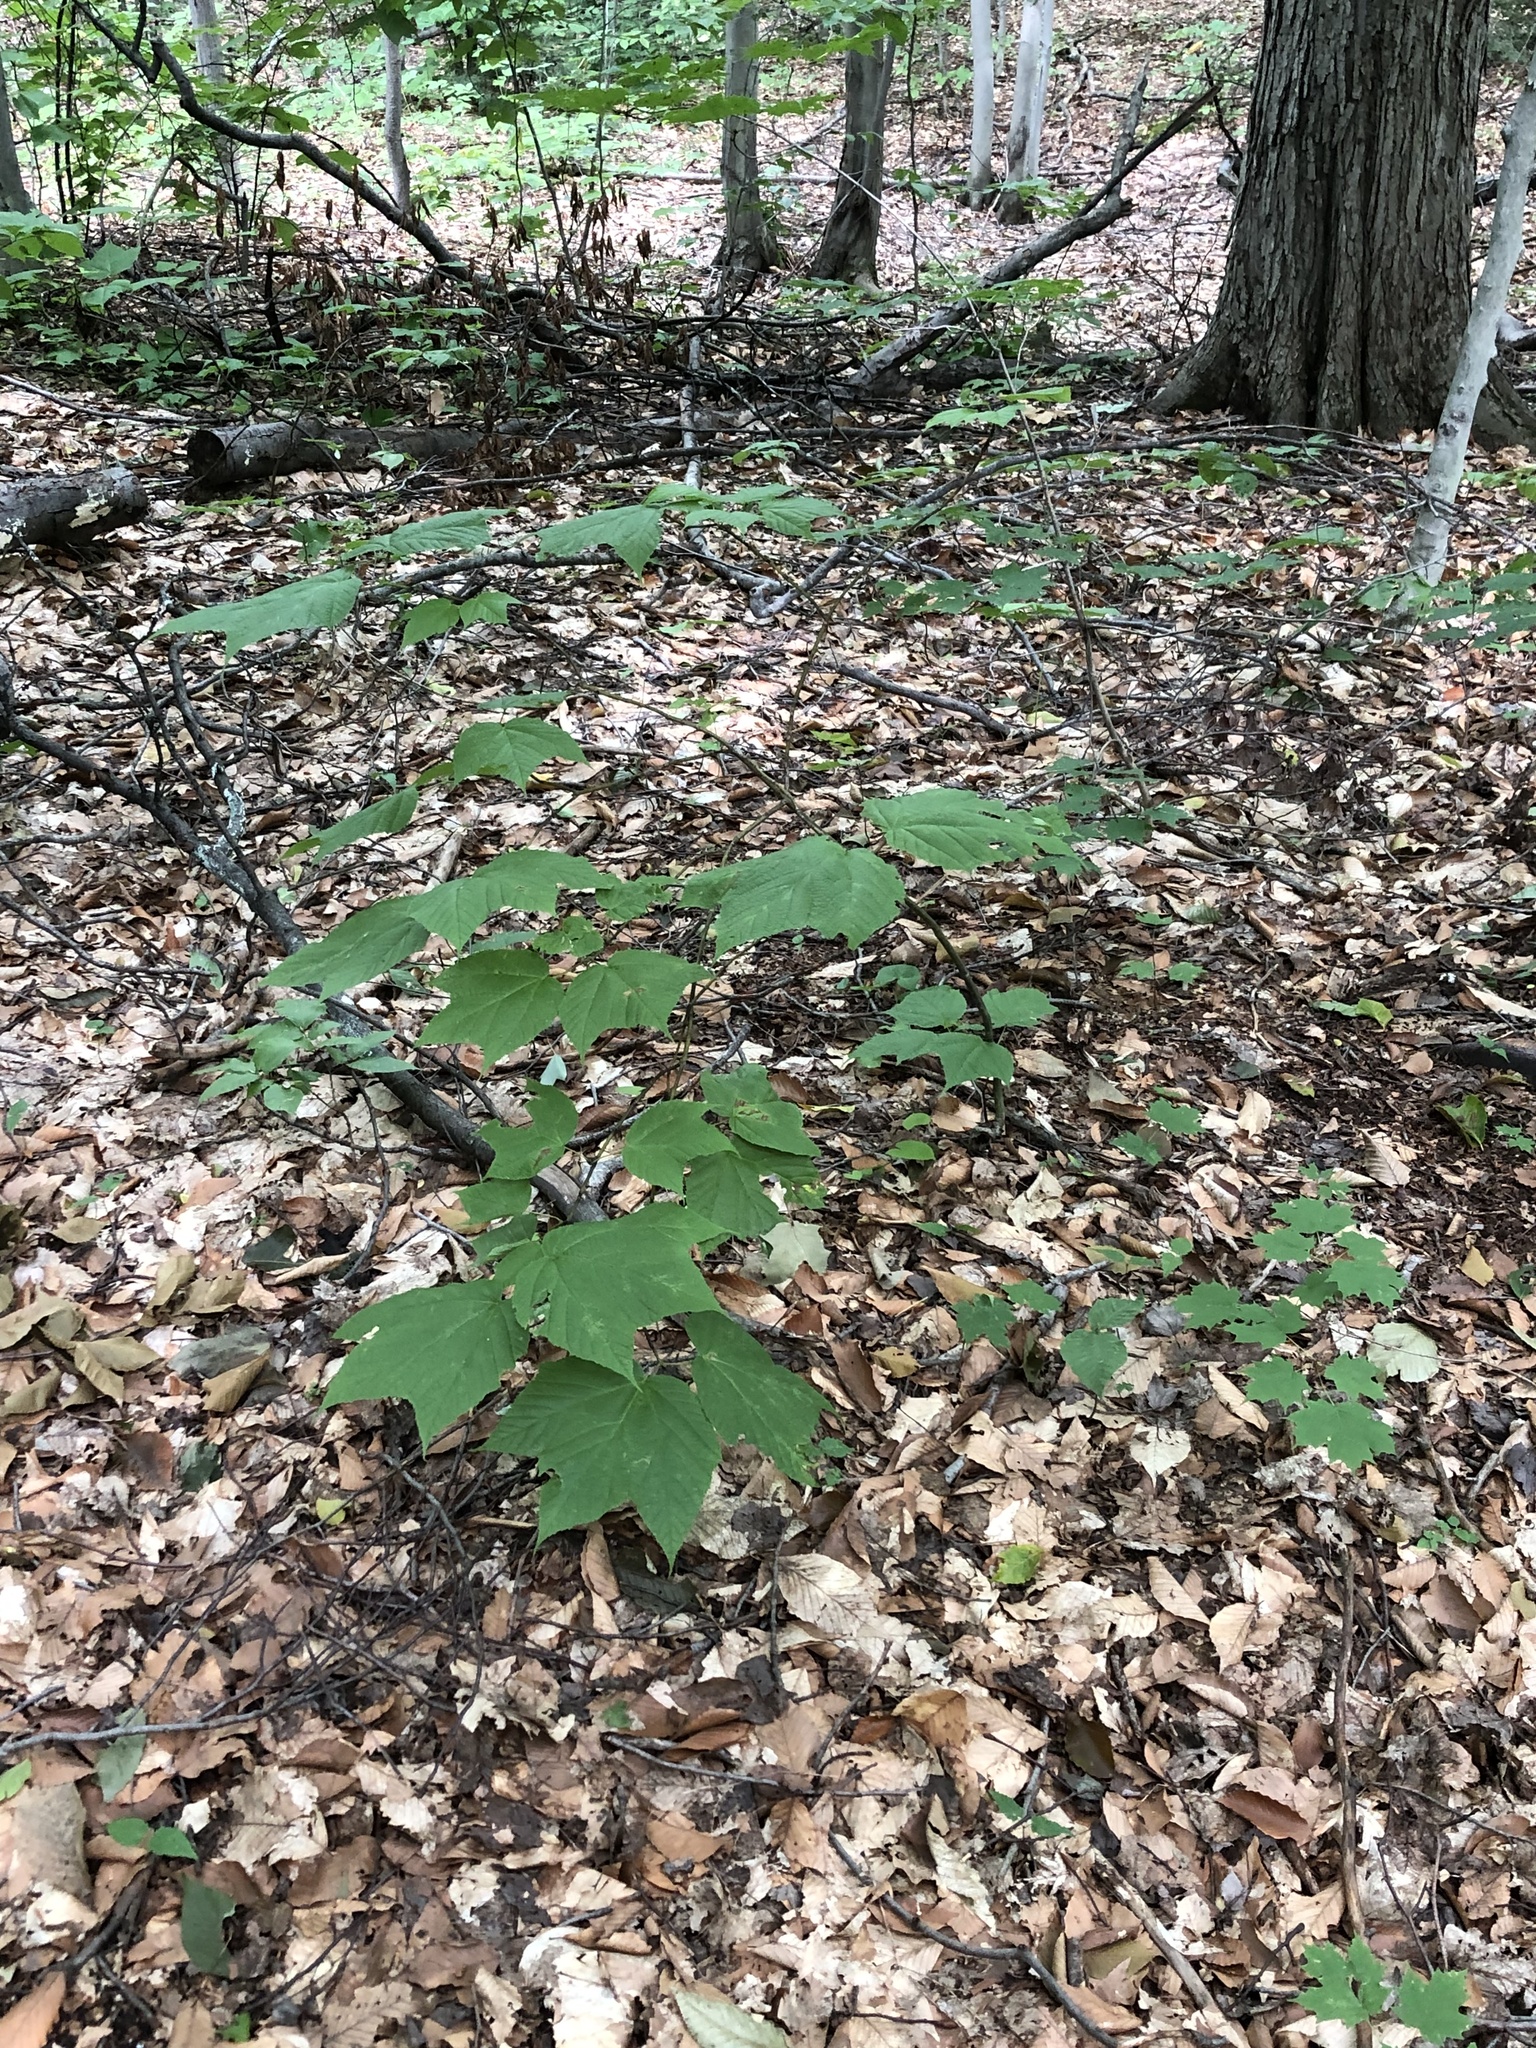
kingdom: Plantae
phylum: Tracheophyta
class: Magnoliopsida
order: Sapindales
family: Sapindaceae
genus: Acer
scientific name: Acer pensylvanicum
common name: Moosewood
